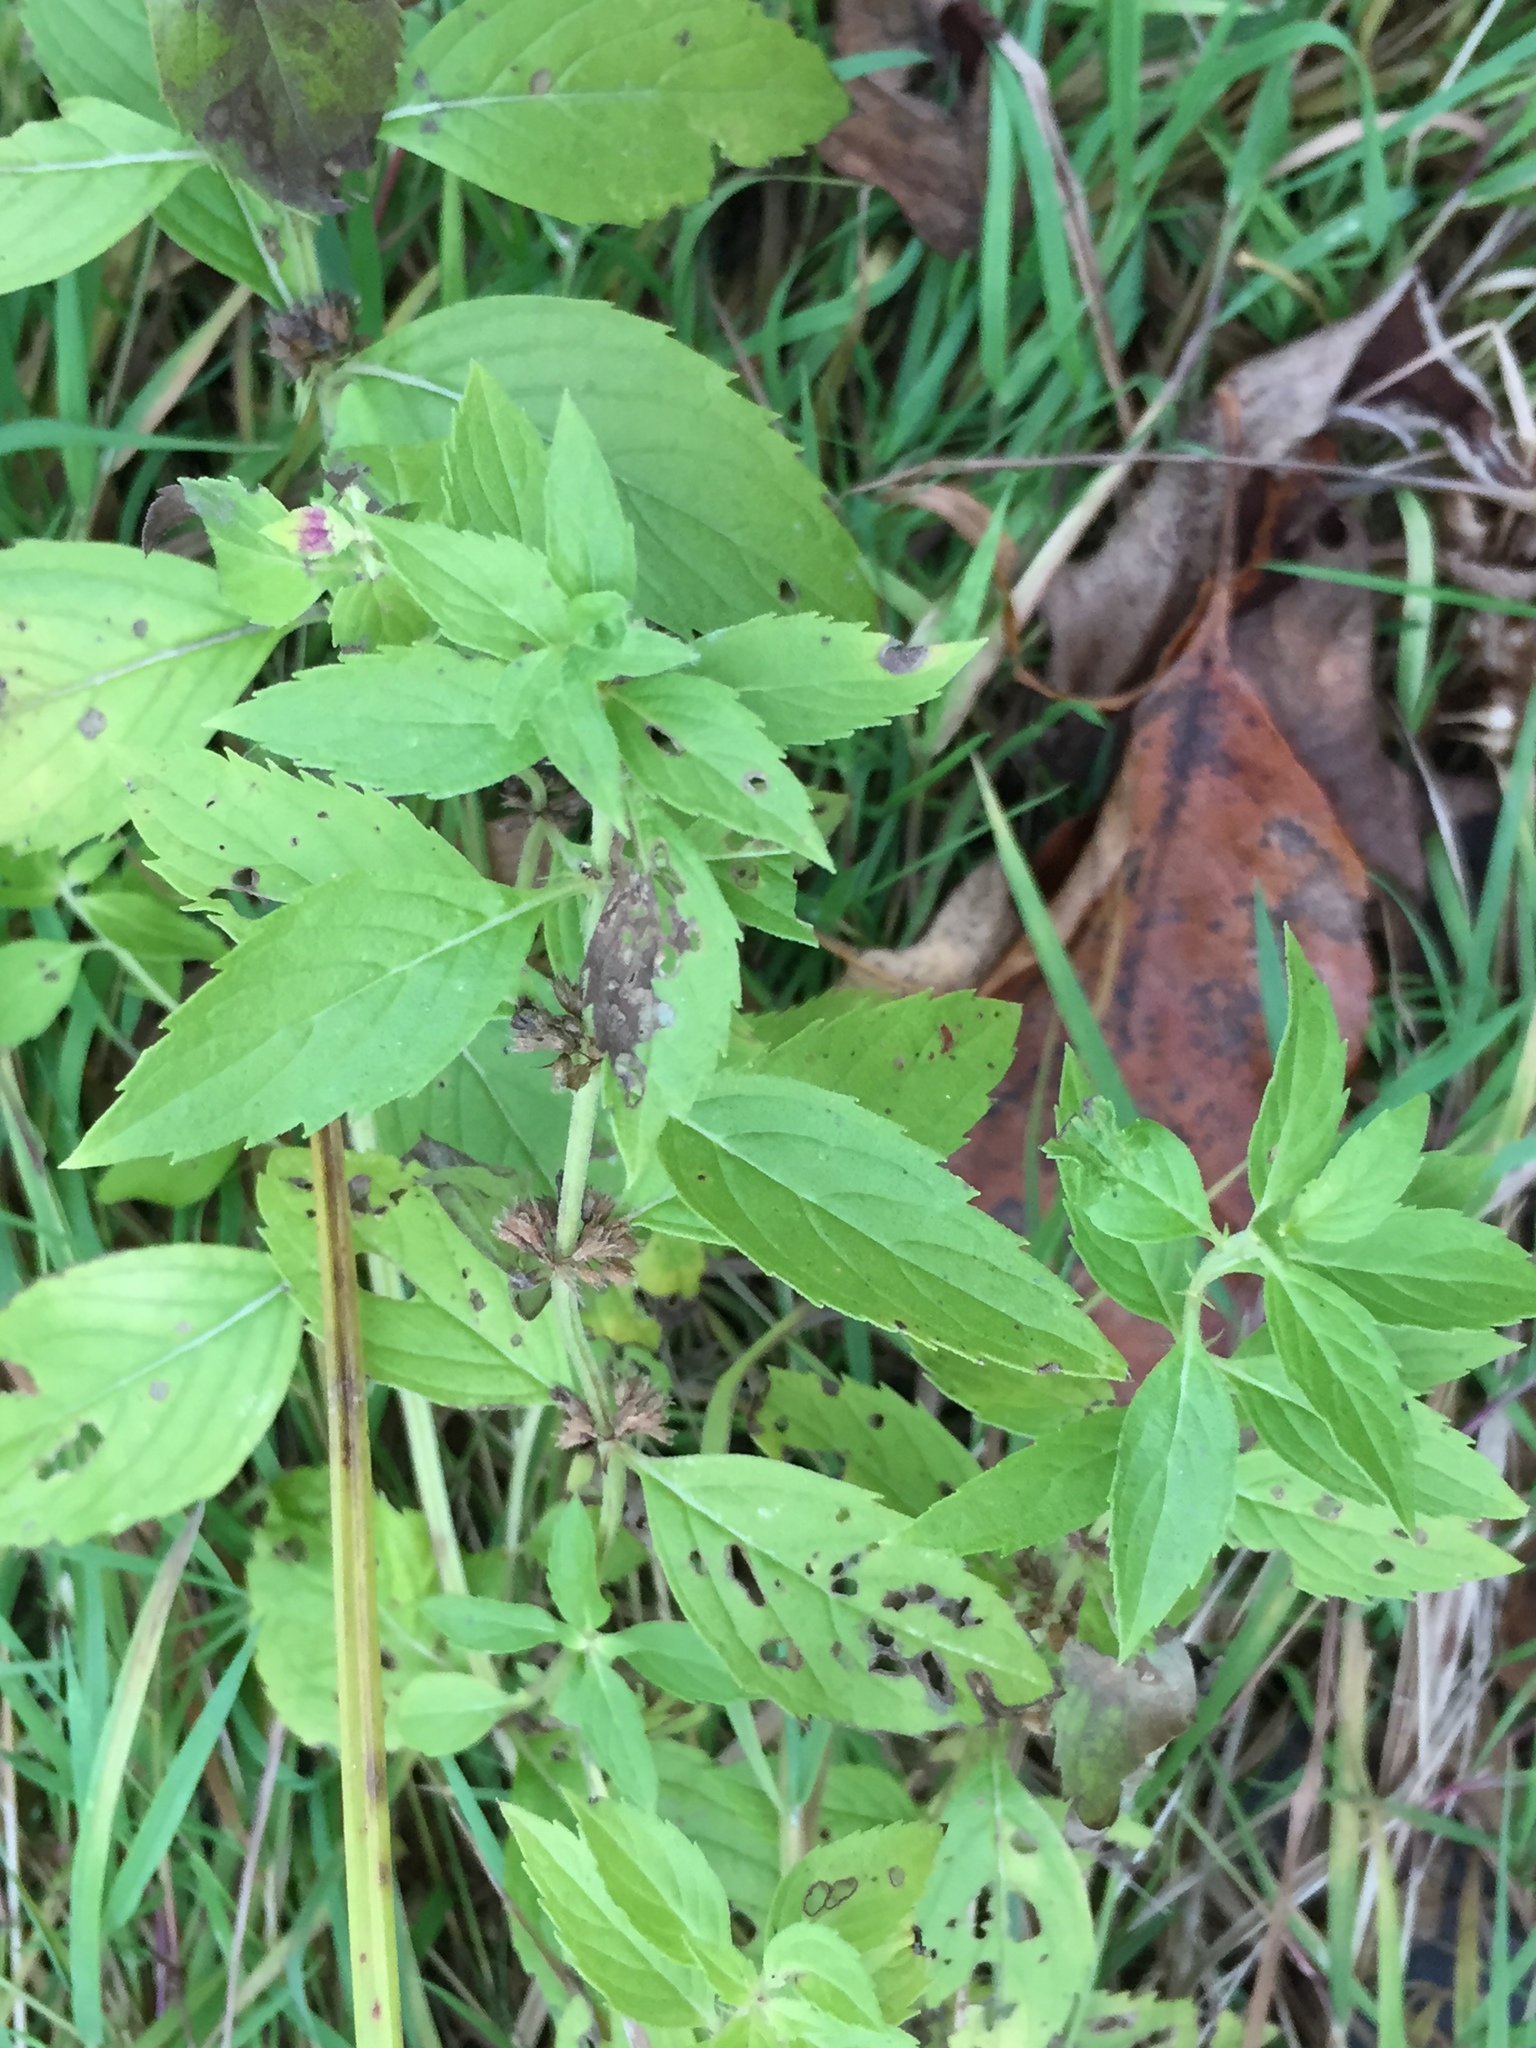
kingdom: Plantae
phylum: Tracheophyta
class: Magnoliopsida
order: Lamiales
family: Lamiaceae
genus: Mentha
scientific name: Mentha canadensis
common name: American corn mint
